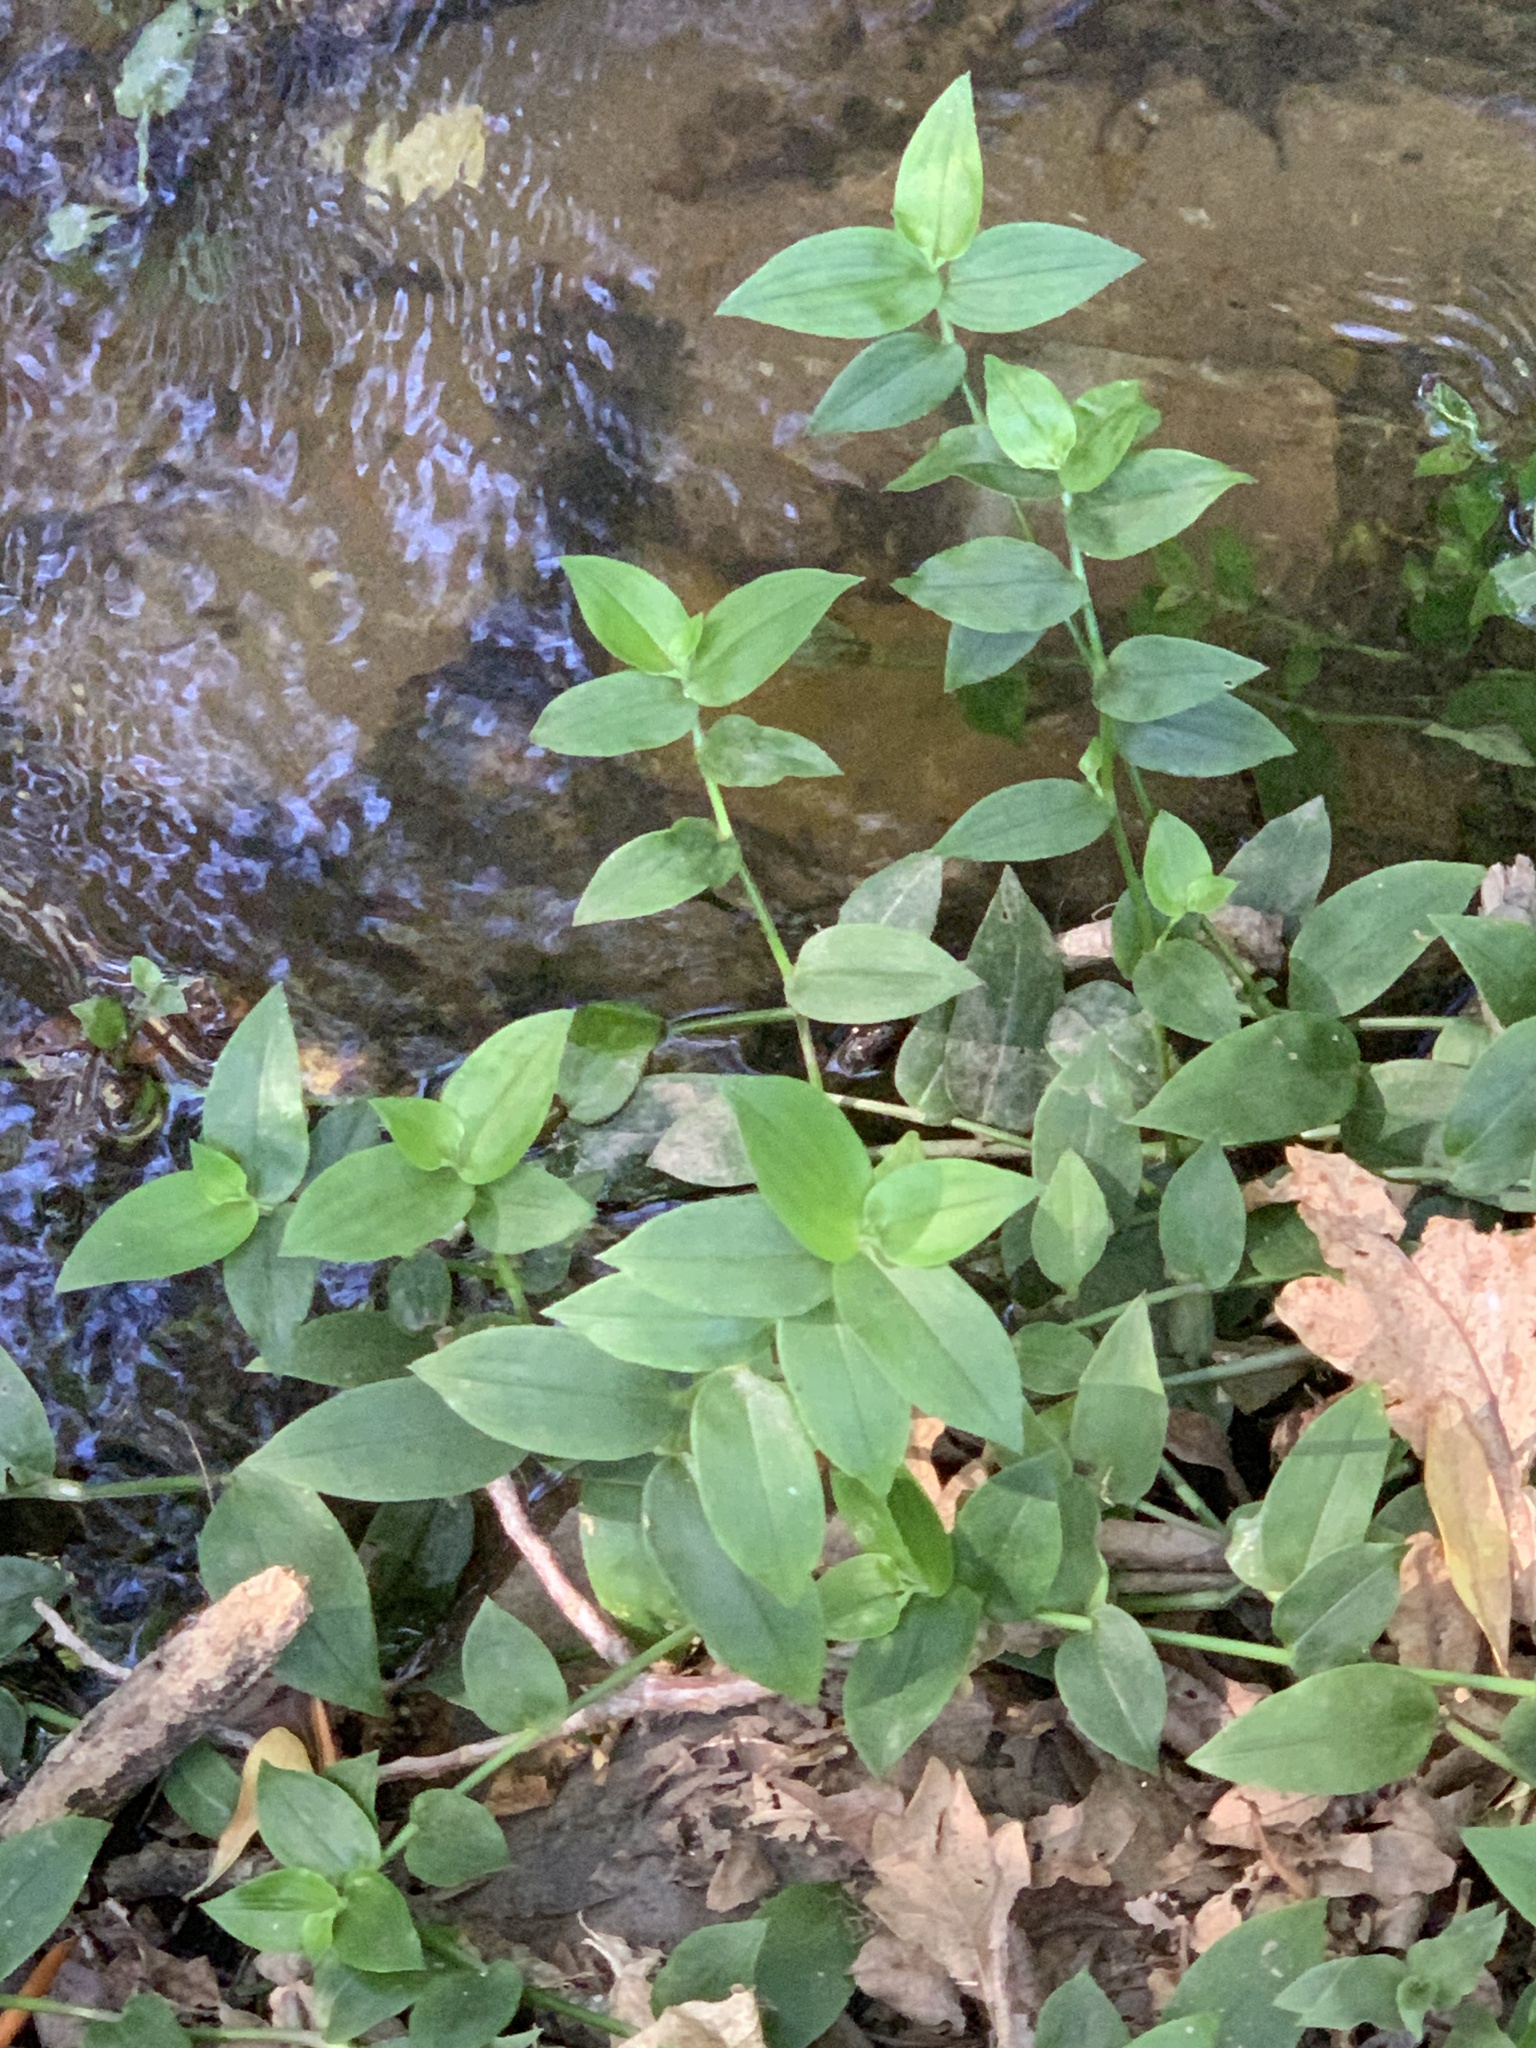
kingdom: Plantae
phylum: Tracheophyta
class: Liliopsida
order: Commelinales
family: Commelinaceae
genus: Tradescantia
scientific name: Tradescantia fluminensis
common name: Wandering-jew
